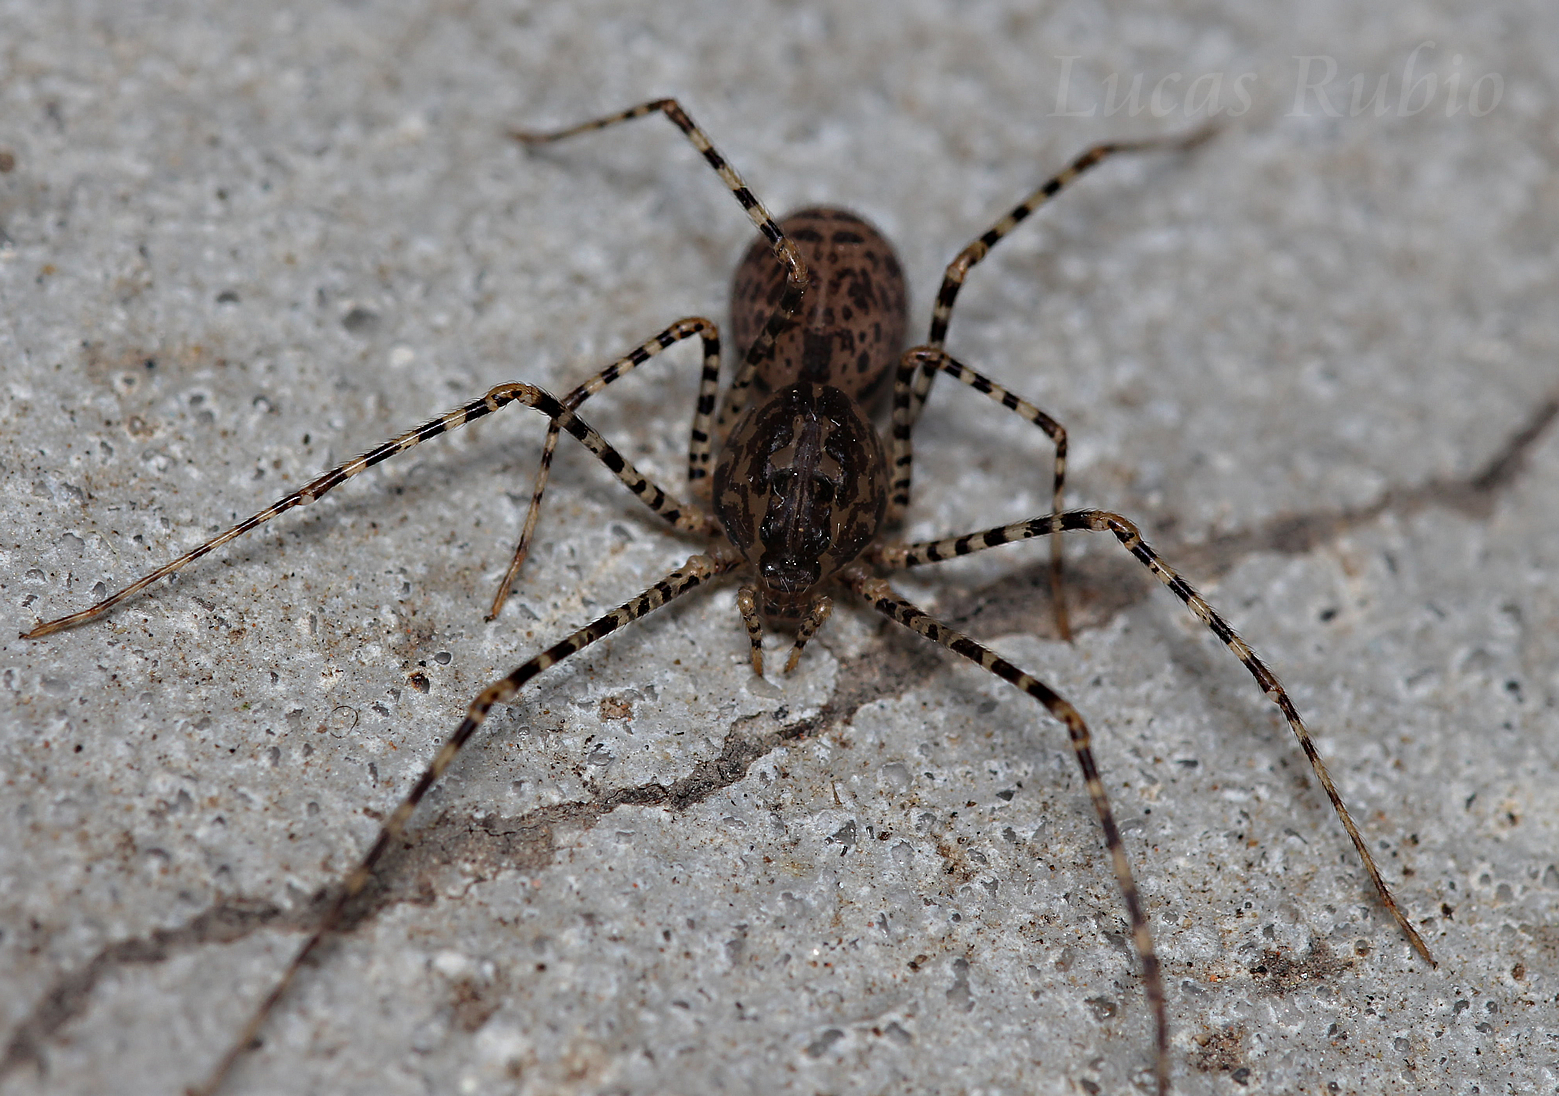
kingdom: Animalia
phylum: Arthropoda
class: Arachnida
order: Araneae
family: Scytodidae
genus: Scytodes
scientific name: Scytodes globula
